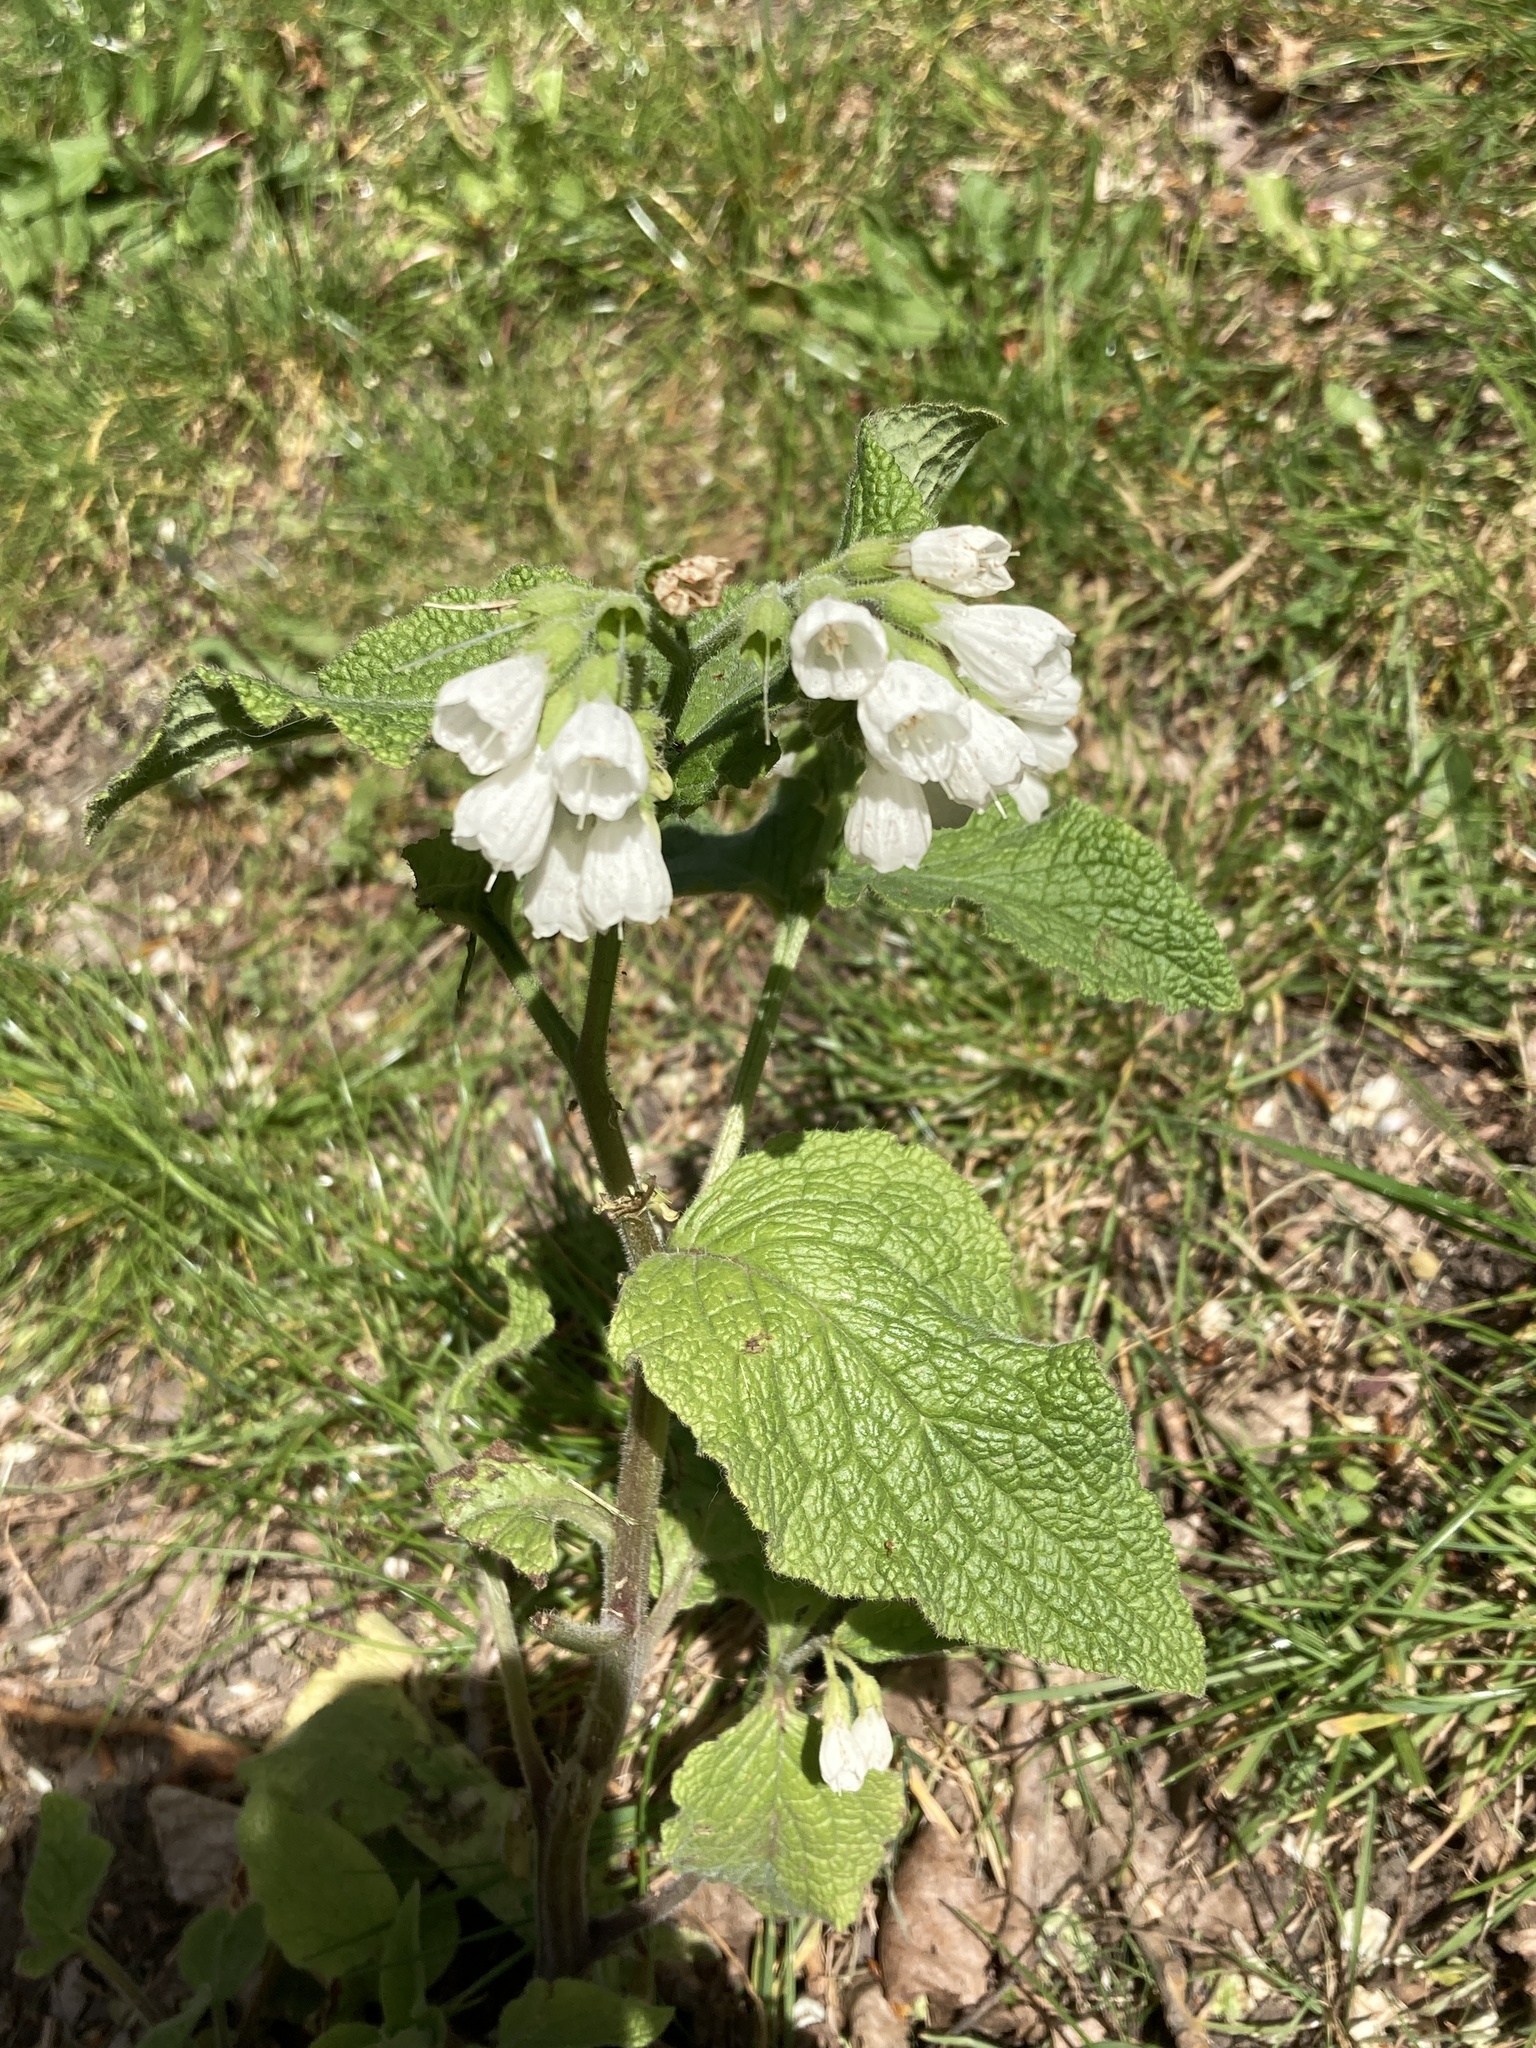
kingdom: Plantae
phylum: Tracheophyta
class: Magnoliopsida
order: Boraginales
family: Boraginaceae
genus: Symphytum
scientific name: Symphytum orientale
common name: White comfrey
